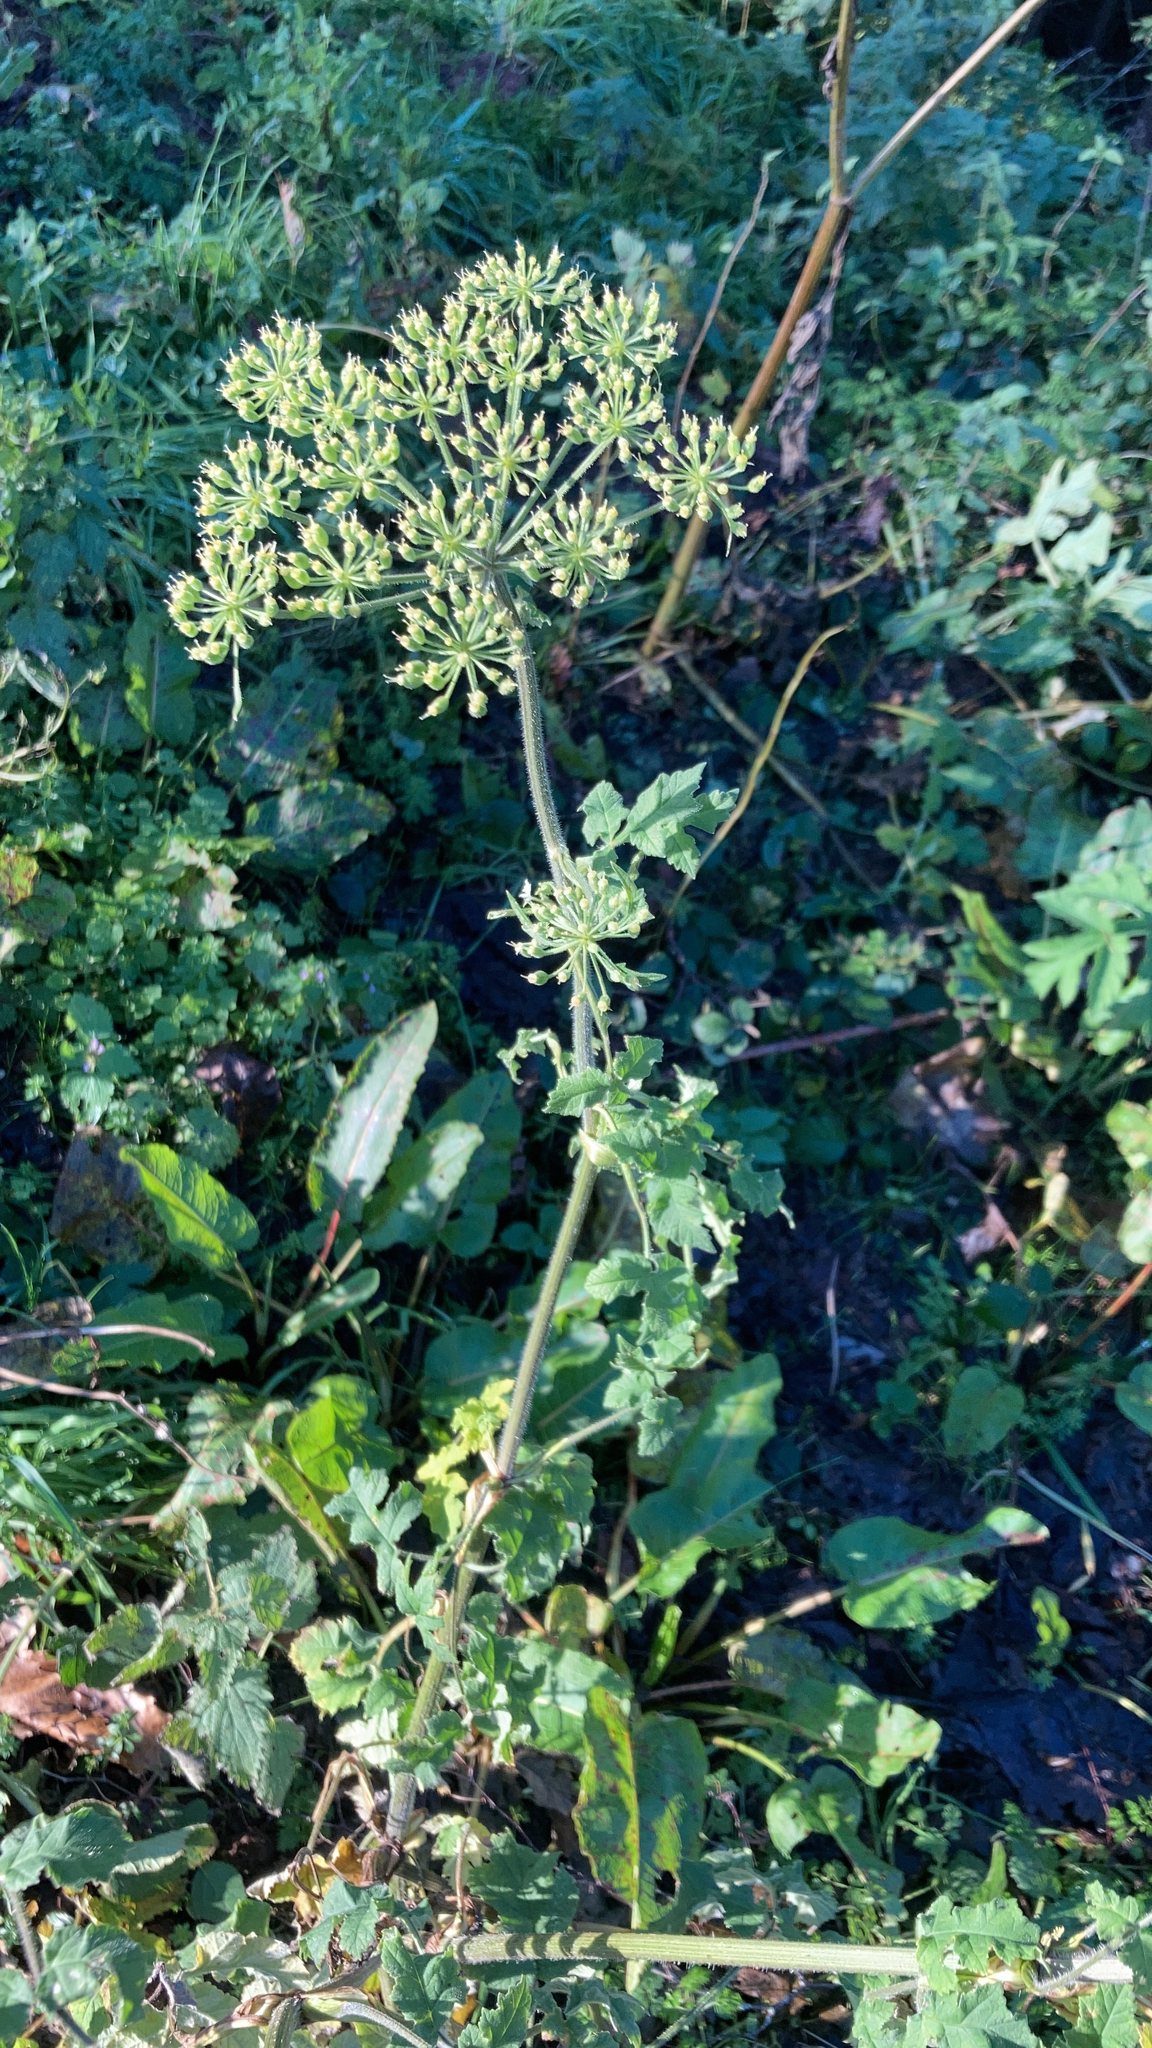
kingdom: Plantae
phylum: Tracheophyta
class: Magnoliopsida
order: Apiales
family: Apiaceae
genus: Heracleum
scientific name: Heracleum sphondylium
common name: Hogweed
